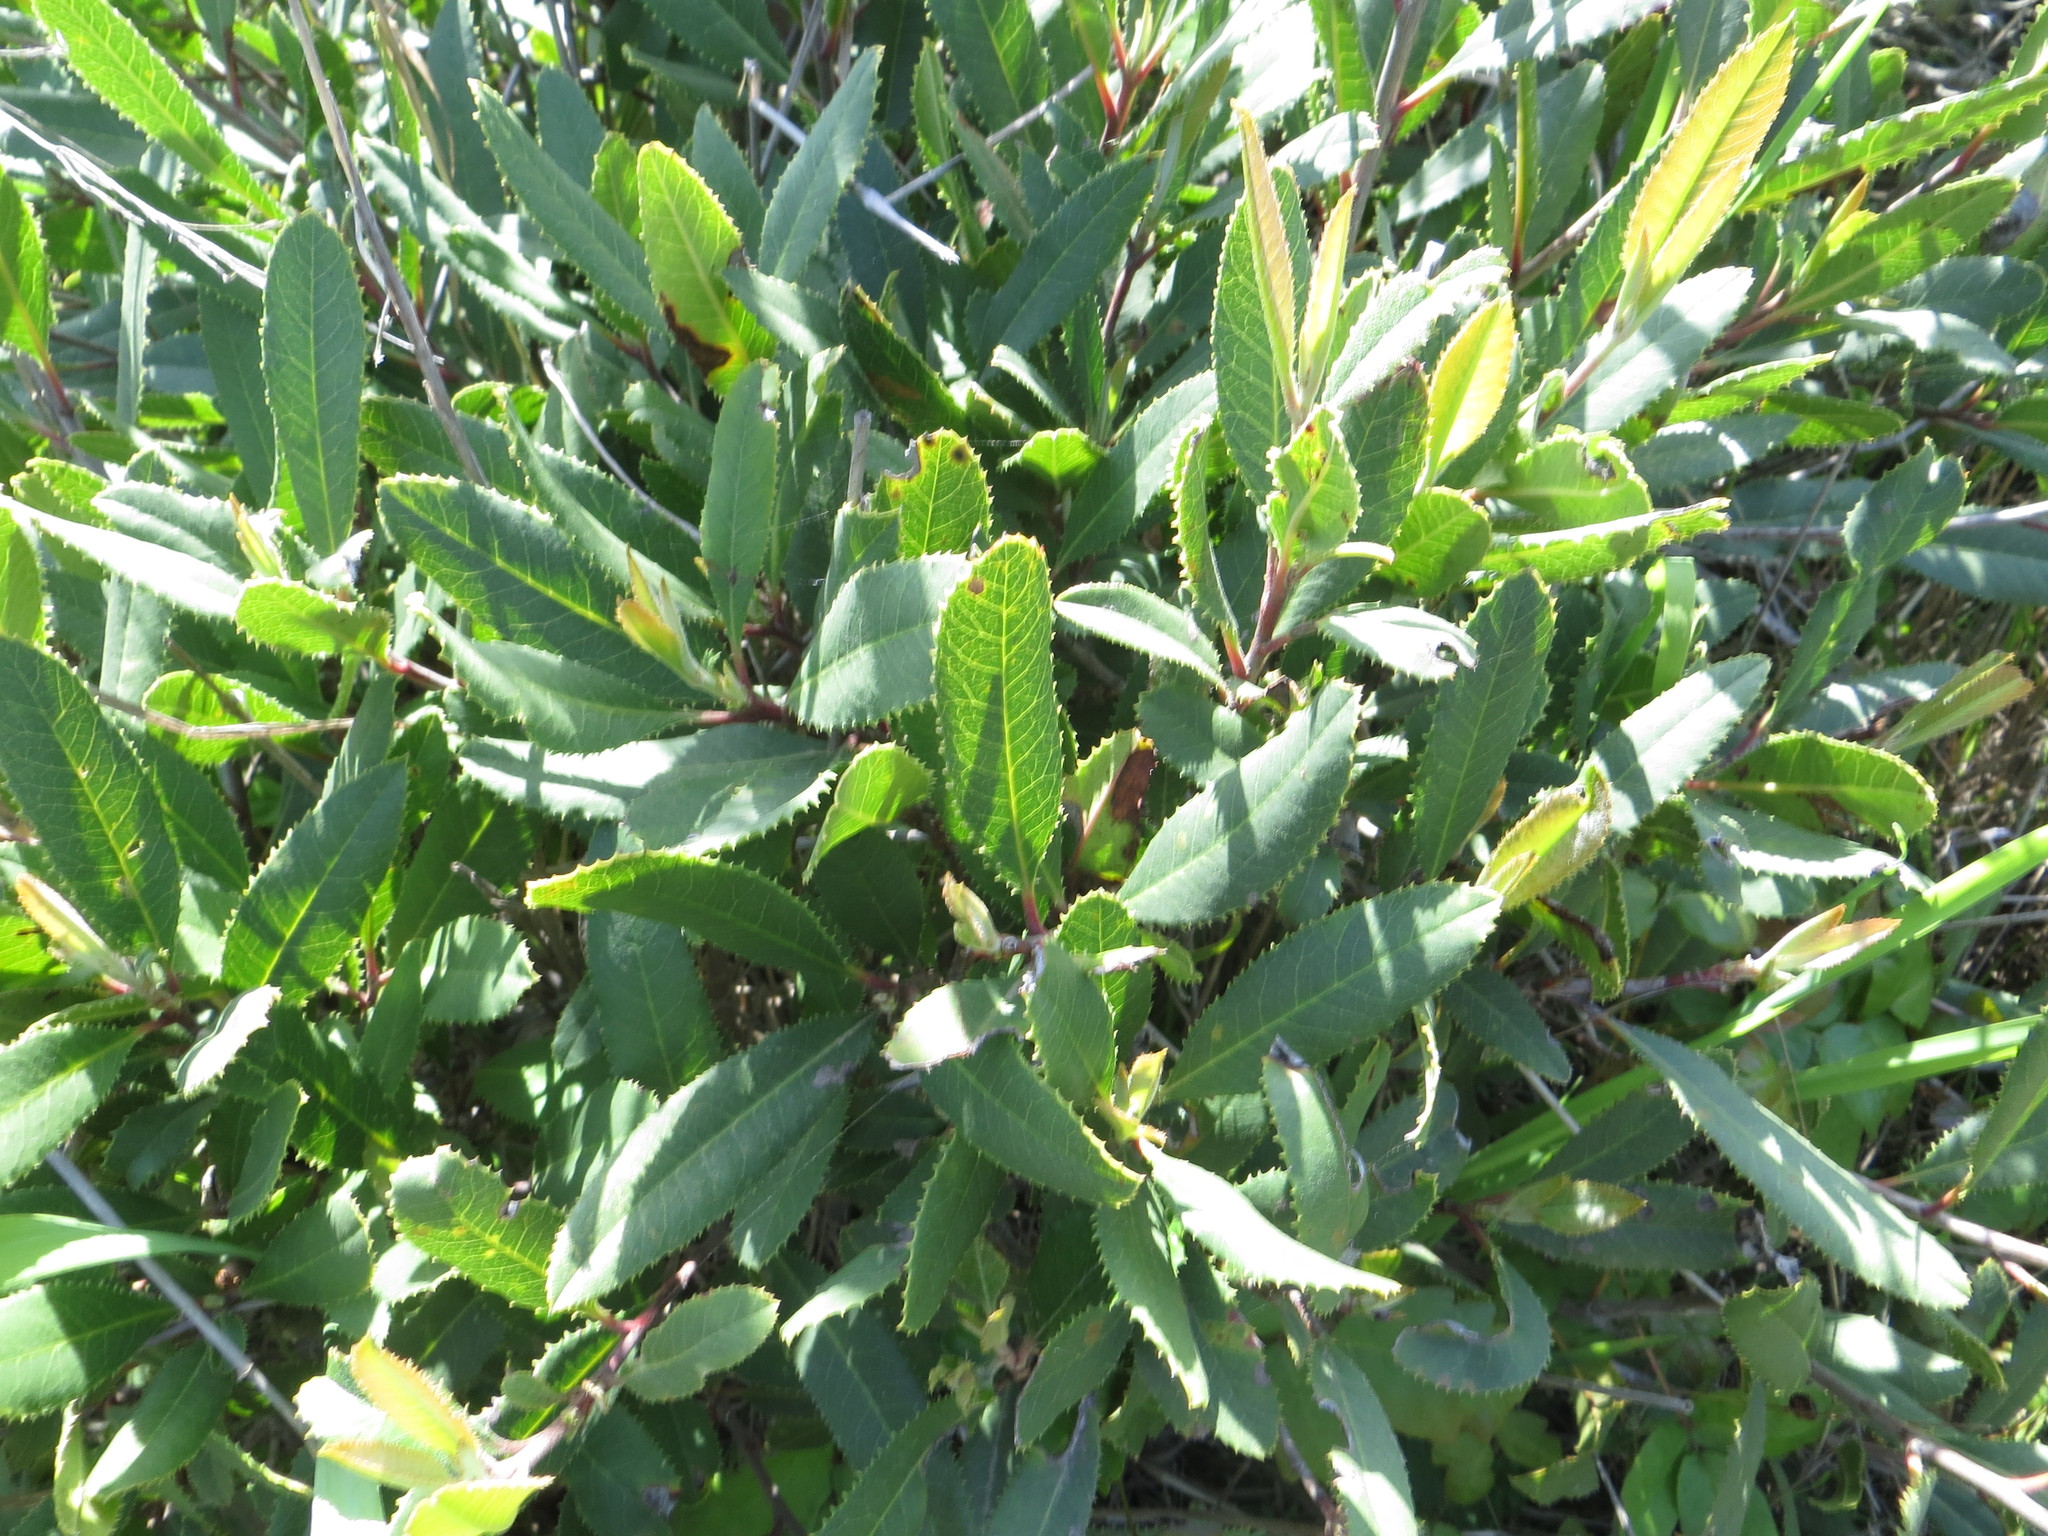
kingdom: Plantae
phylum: Tracheophyta
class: Magnoliopsida
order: Rosales
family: Rosaceae
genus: Heteromeles
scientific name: Heteromeles arbutifolia
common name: California-holly
